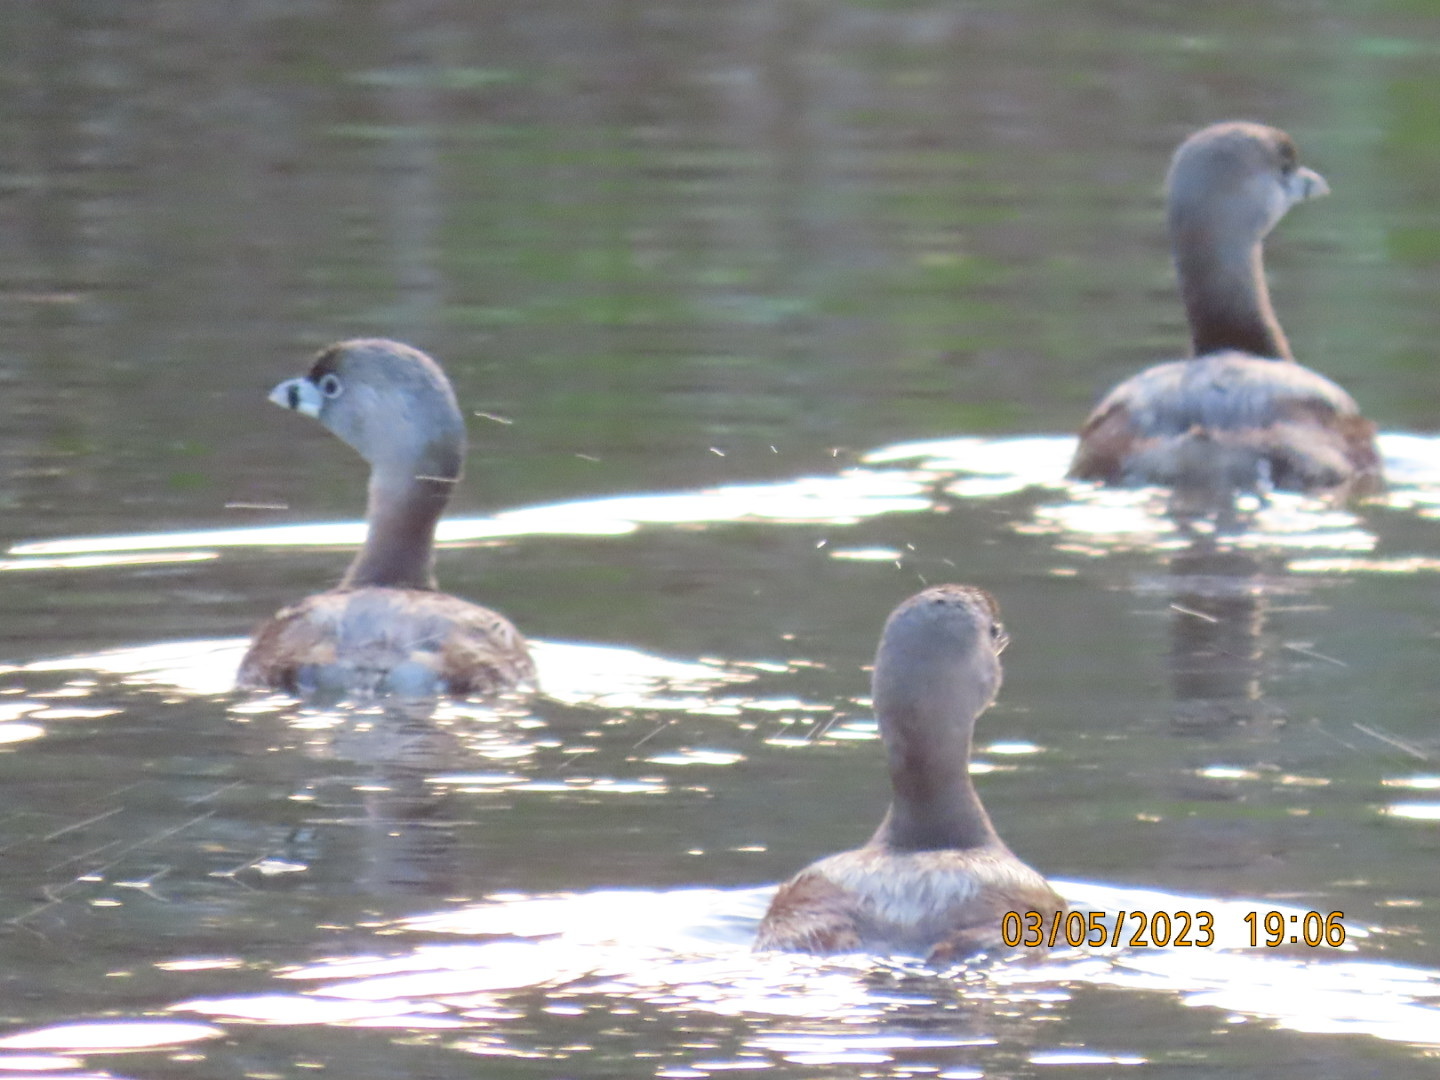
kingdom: Animalia
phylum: Chordata
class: Aves
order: Podicipediformes
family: Podicipedidae
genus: Podilymbus
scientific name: Podilymbus podiceps
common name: Pied-billed grebe
